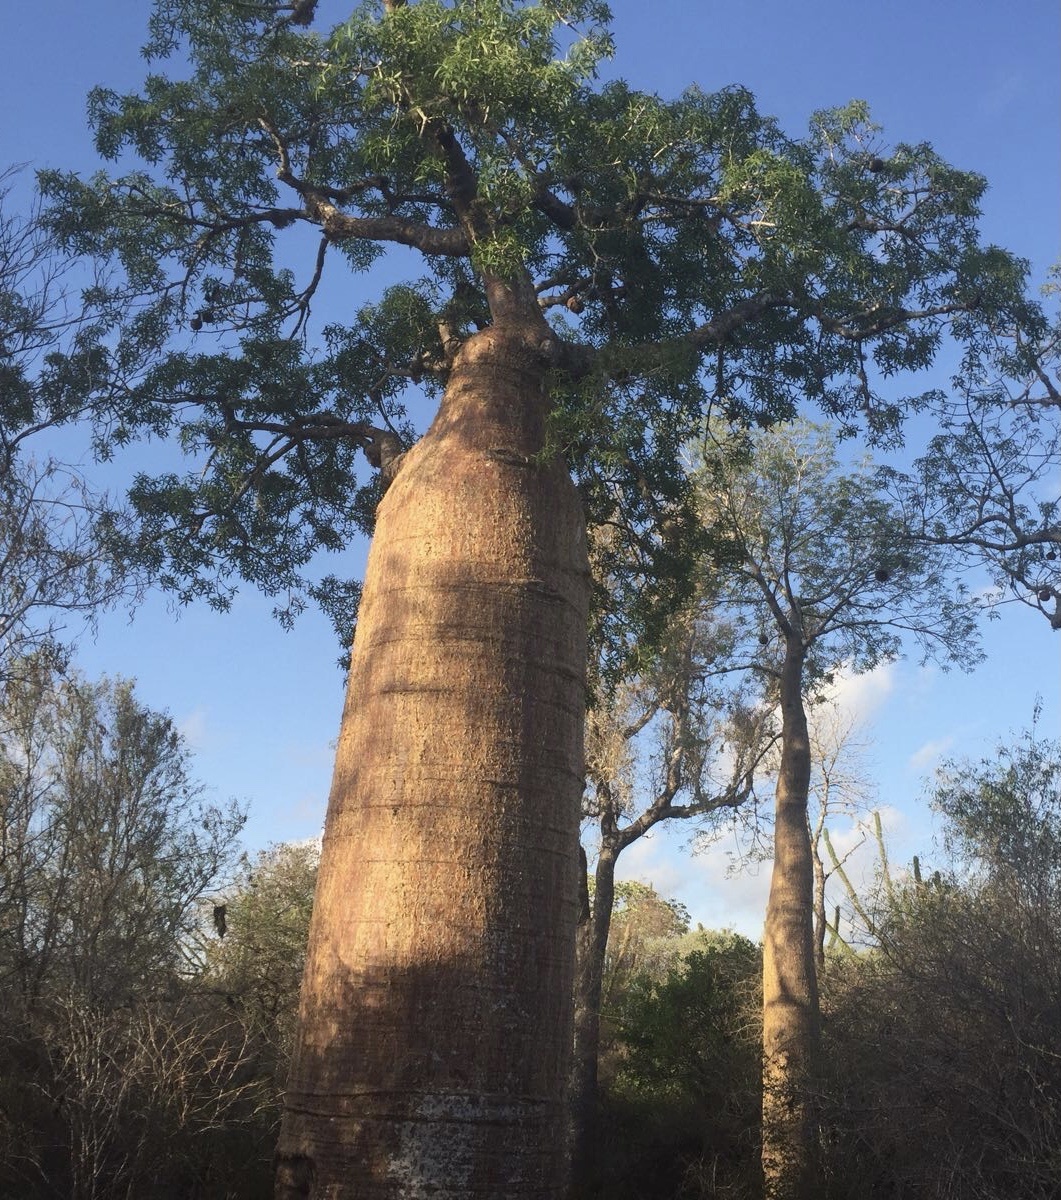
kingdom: Plantae
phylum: Tracheophyta
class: Magnoliopsida
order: Malvales
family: Malvaceae
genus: Adansonia
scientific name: Adansonia rubrostipa
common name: Fony baobab
